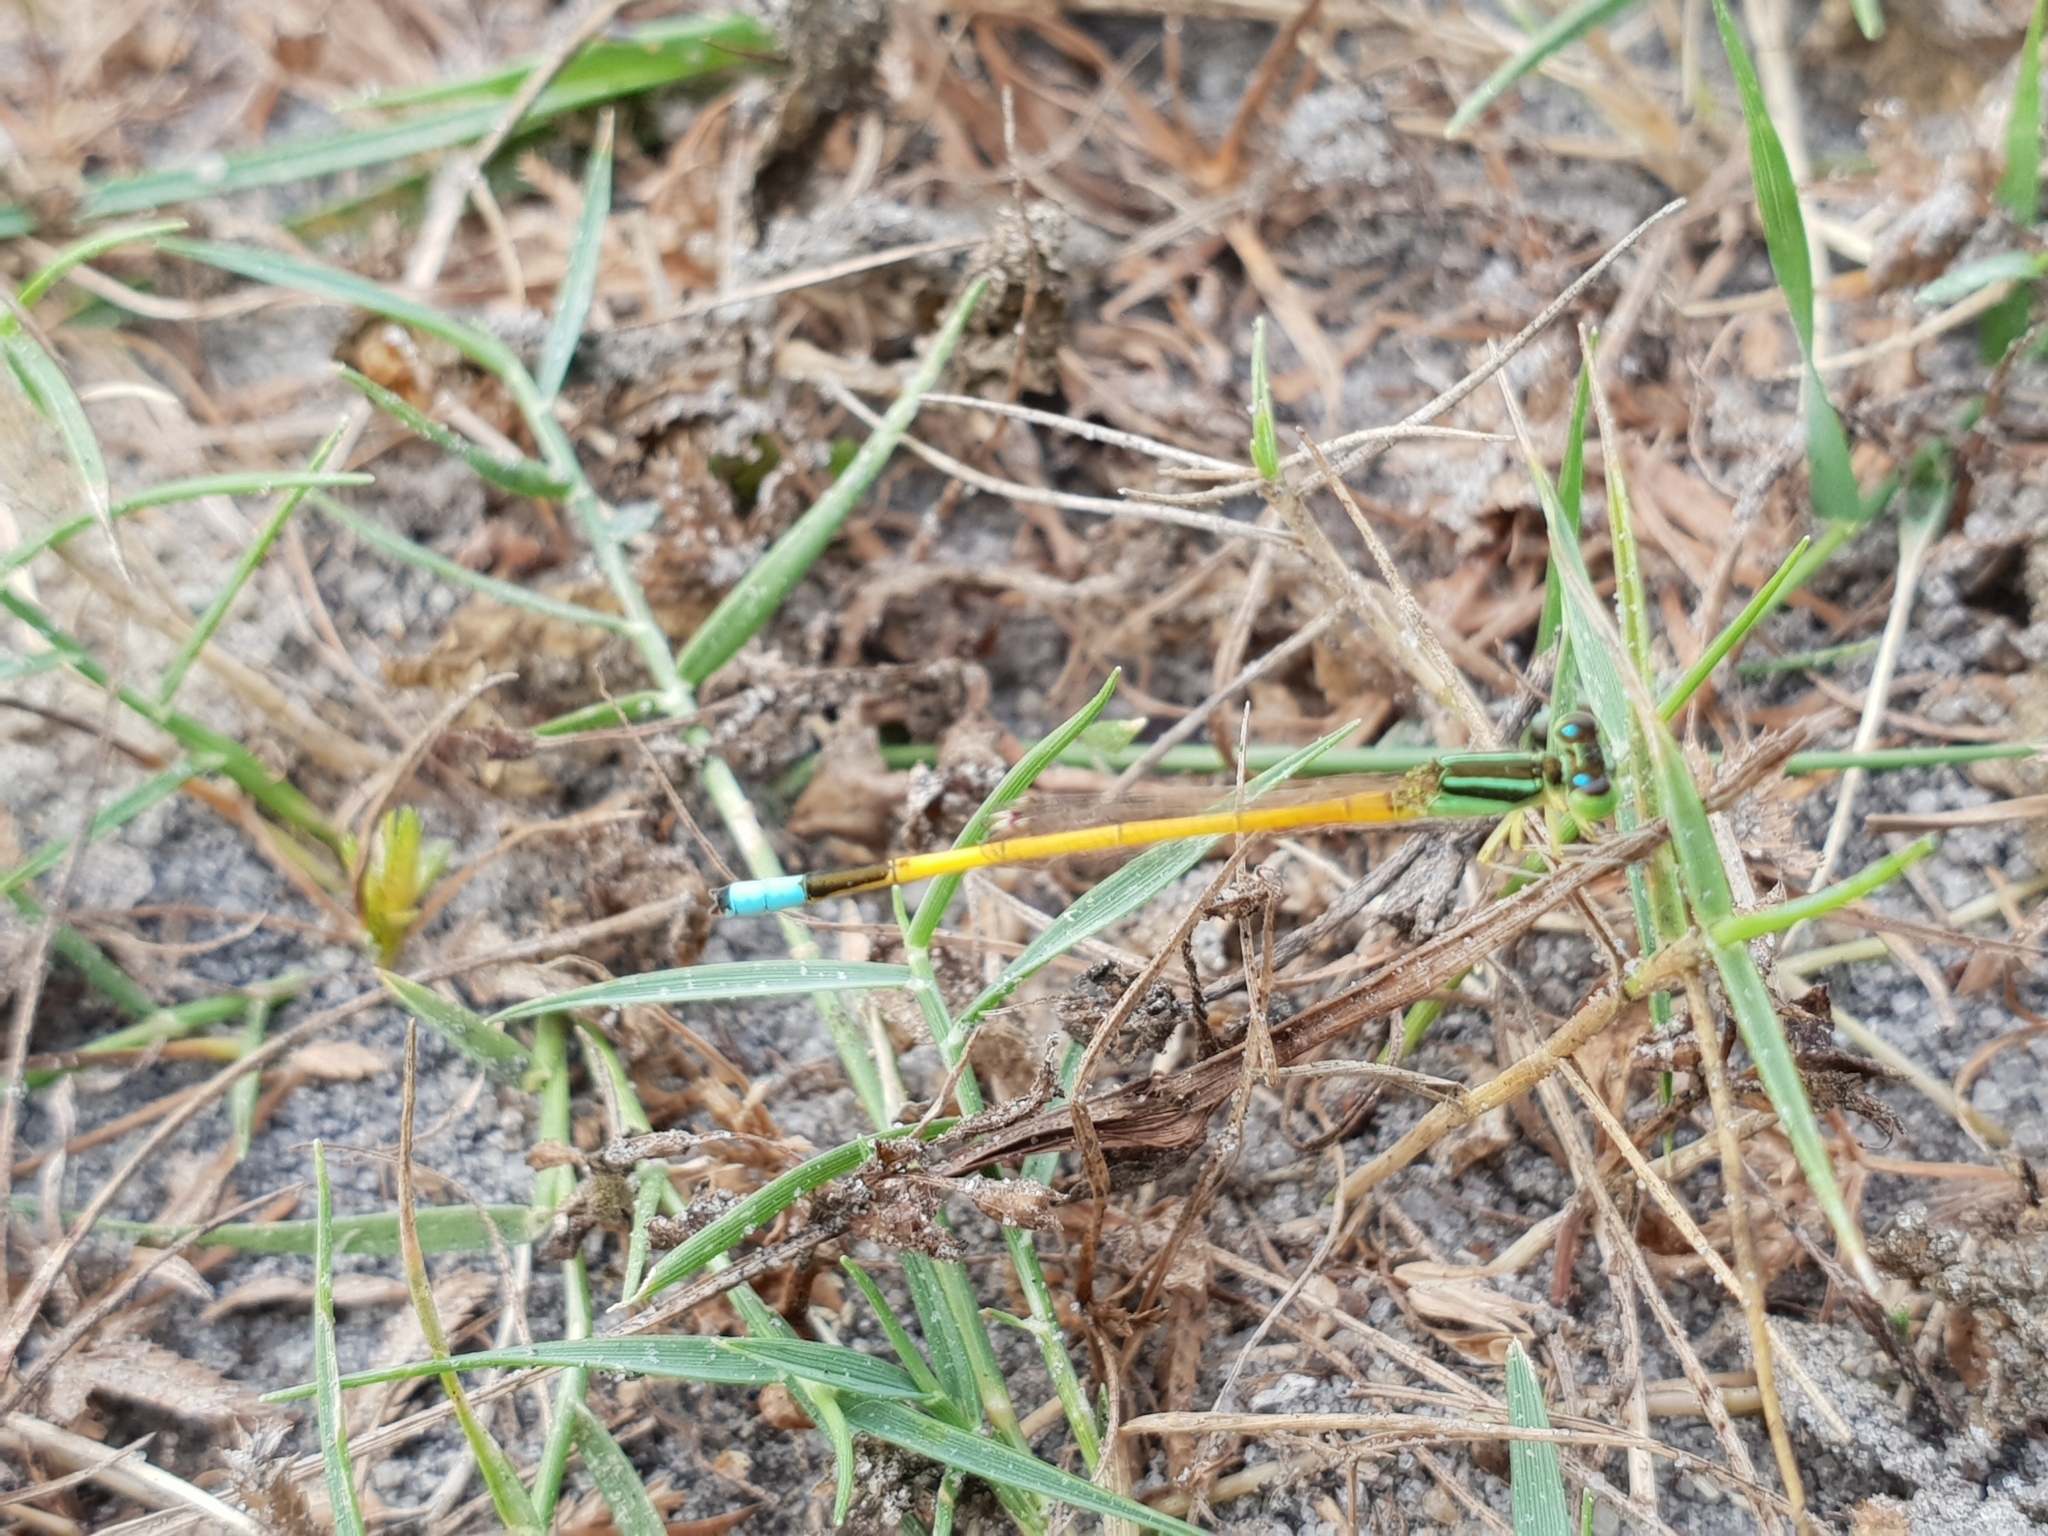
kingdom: Animalia
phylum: Arthropoda
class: Insecta
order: Odonata
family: Coenagrionidae
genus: Ischnura
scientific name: Ischnura rubilio
